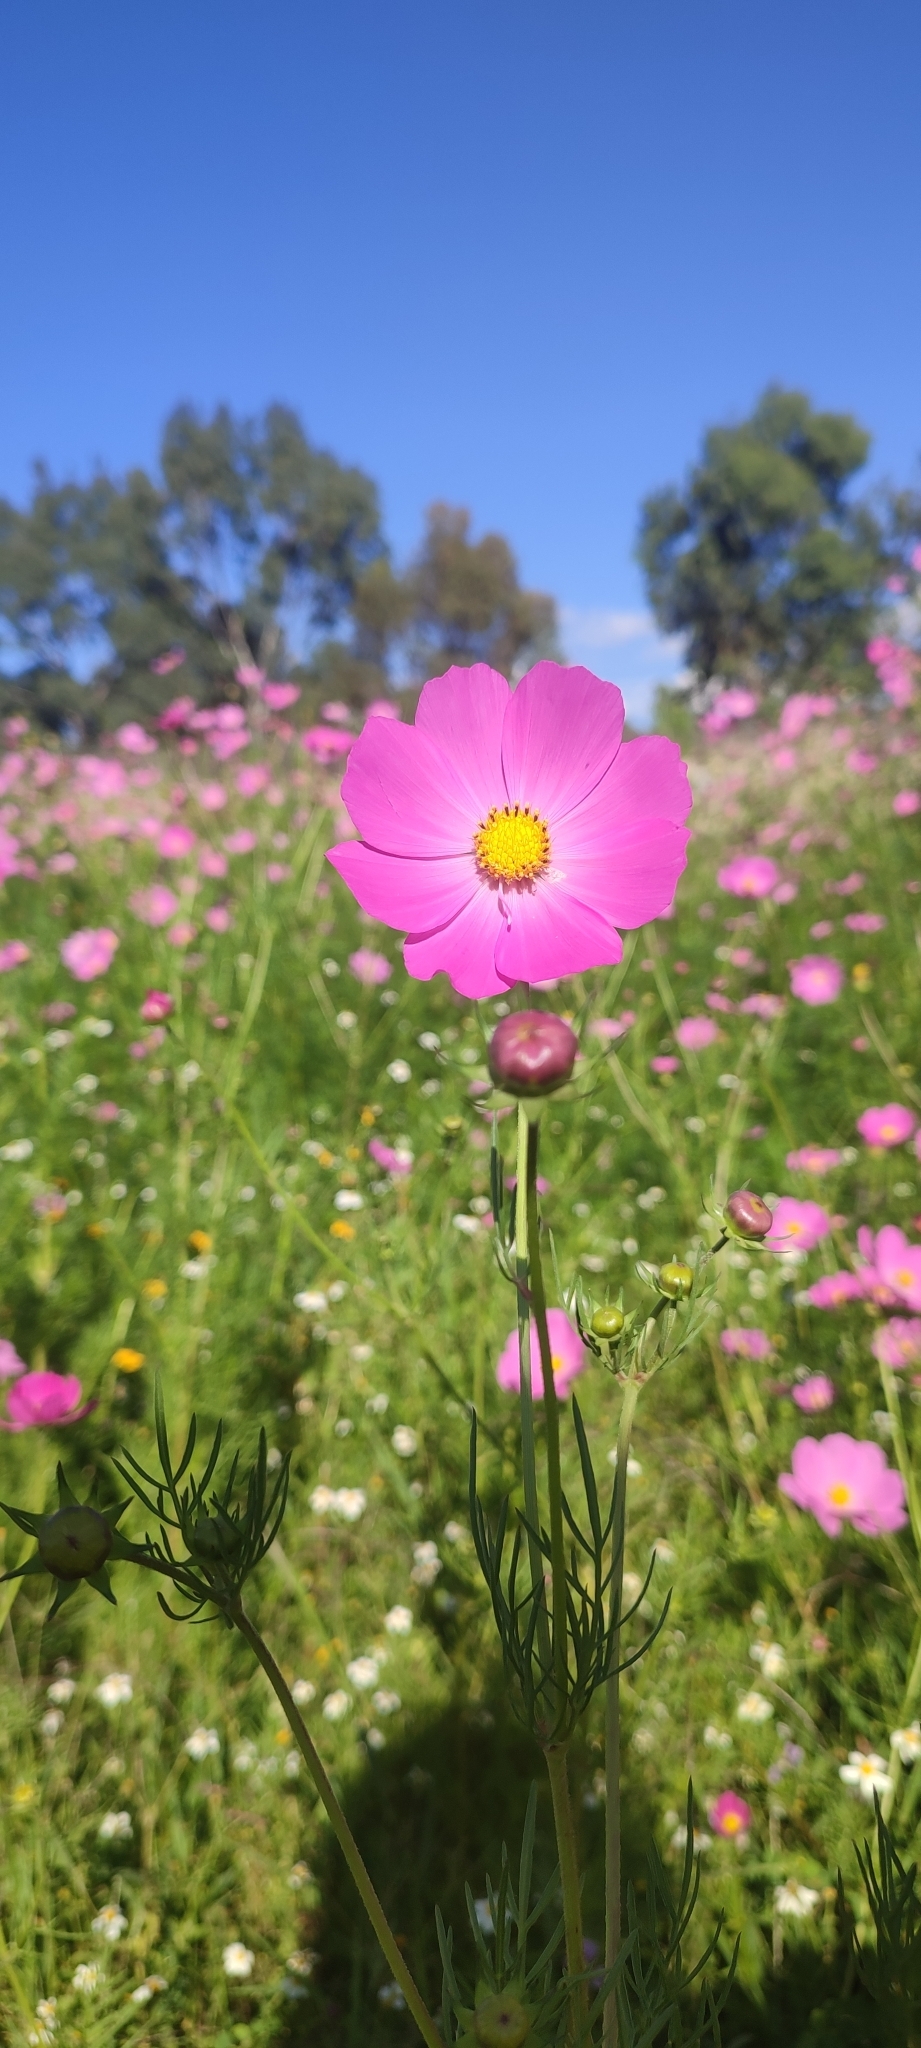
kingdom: Plantae
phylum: Tracheophyta
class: Magnoliopsida
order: Asterales
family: Asteraceae
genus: Cosmos
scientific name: Cosmos bipinnatus
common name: Garden cosmos
